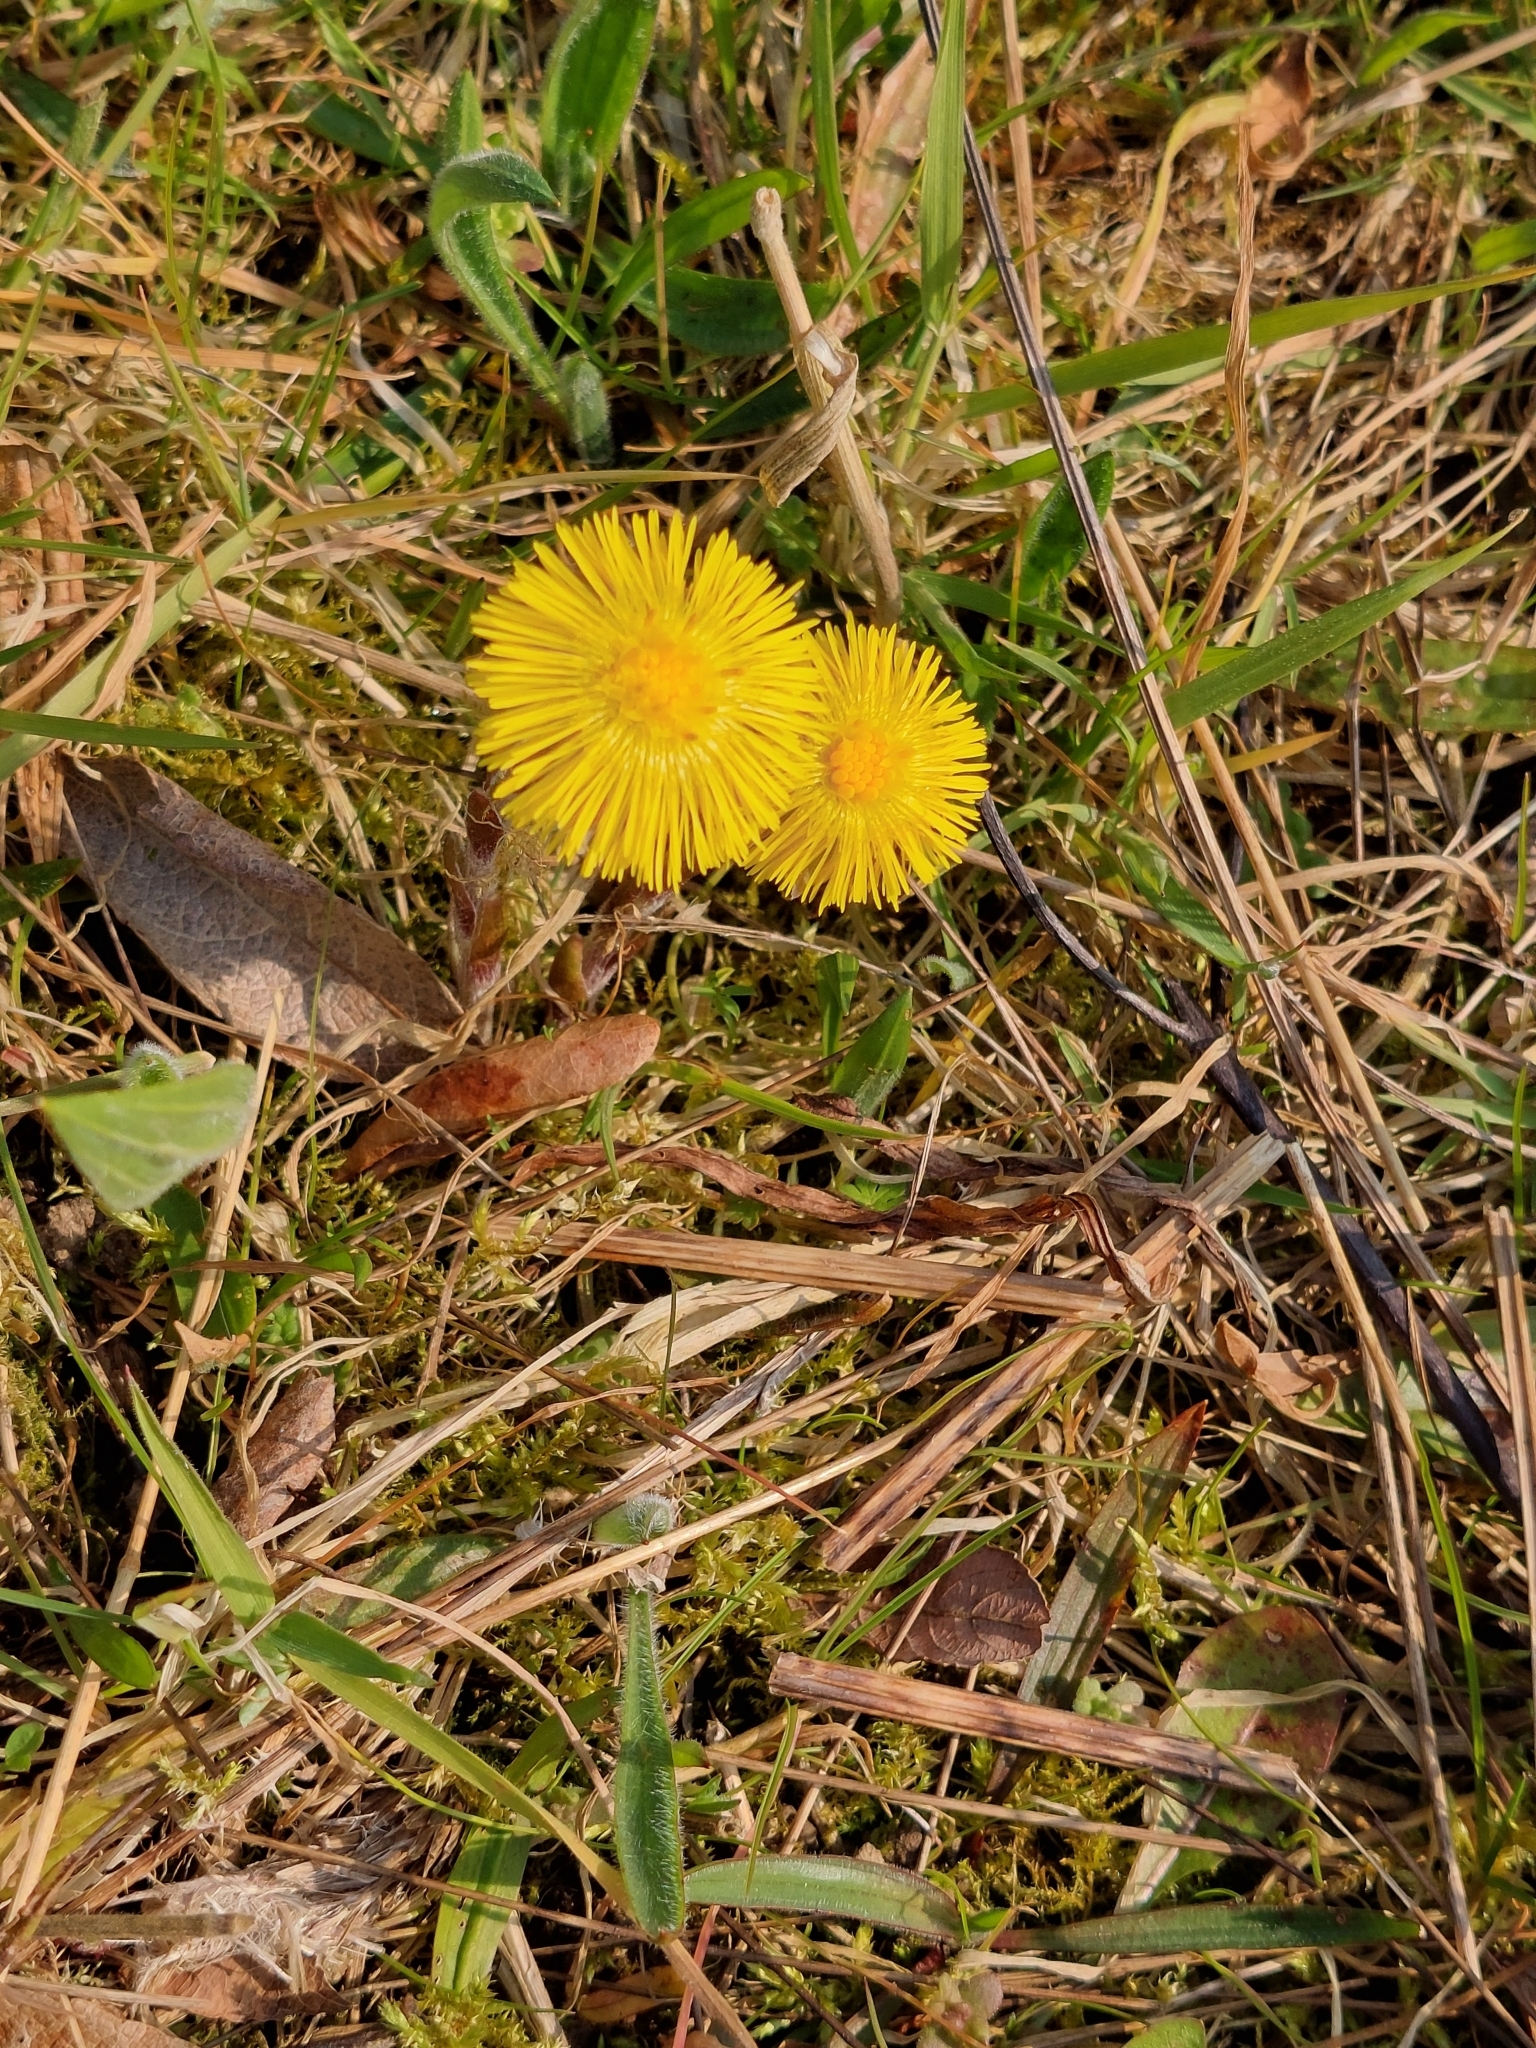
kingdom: Plantae
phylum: Tracheophyta
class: Magnoliopsida
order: Asterales
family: Asteraceae
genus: Tussilago
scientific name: Tussilago farfara
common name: Coltsfoot
